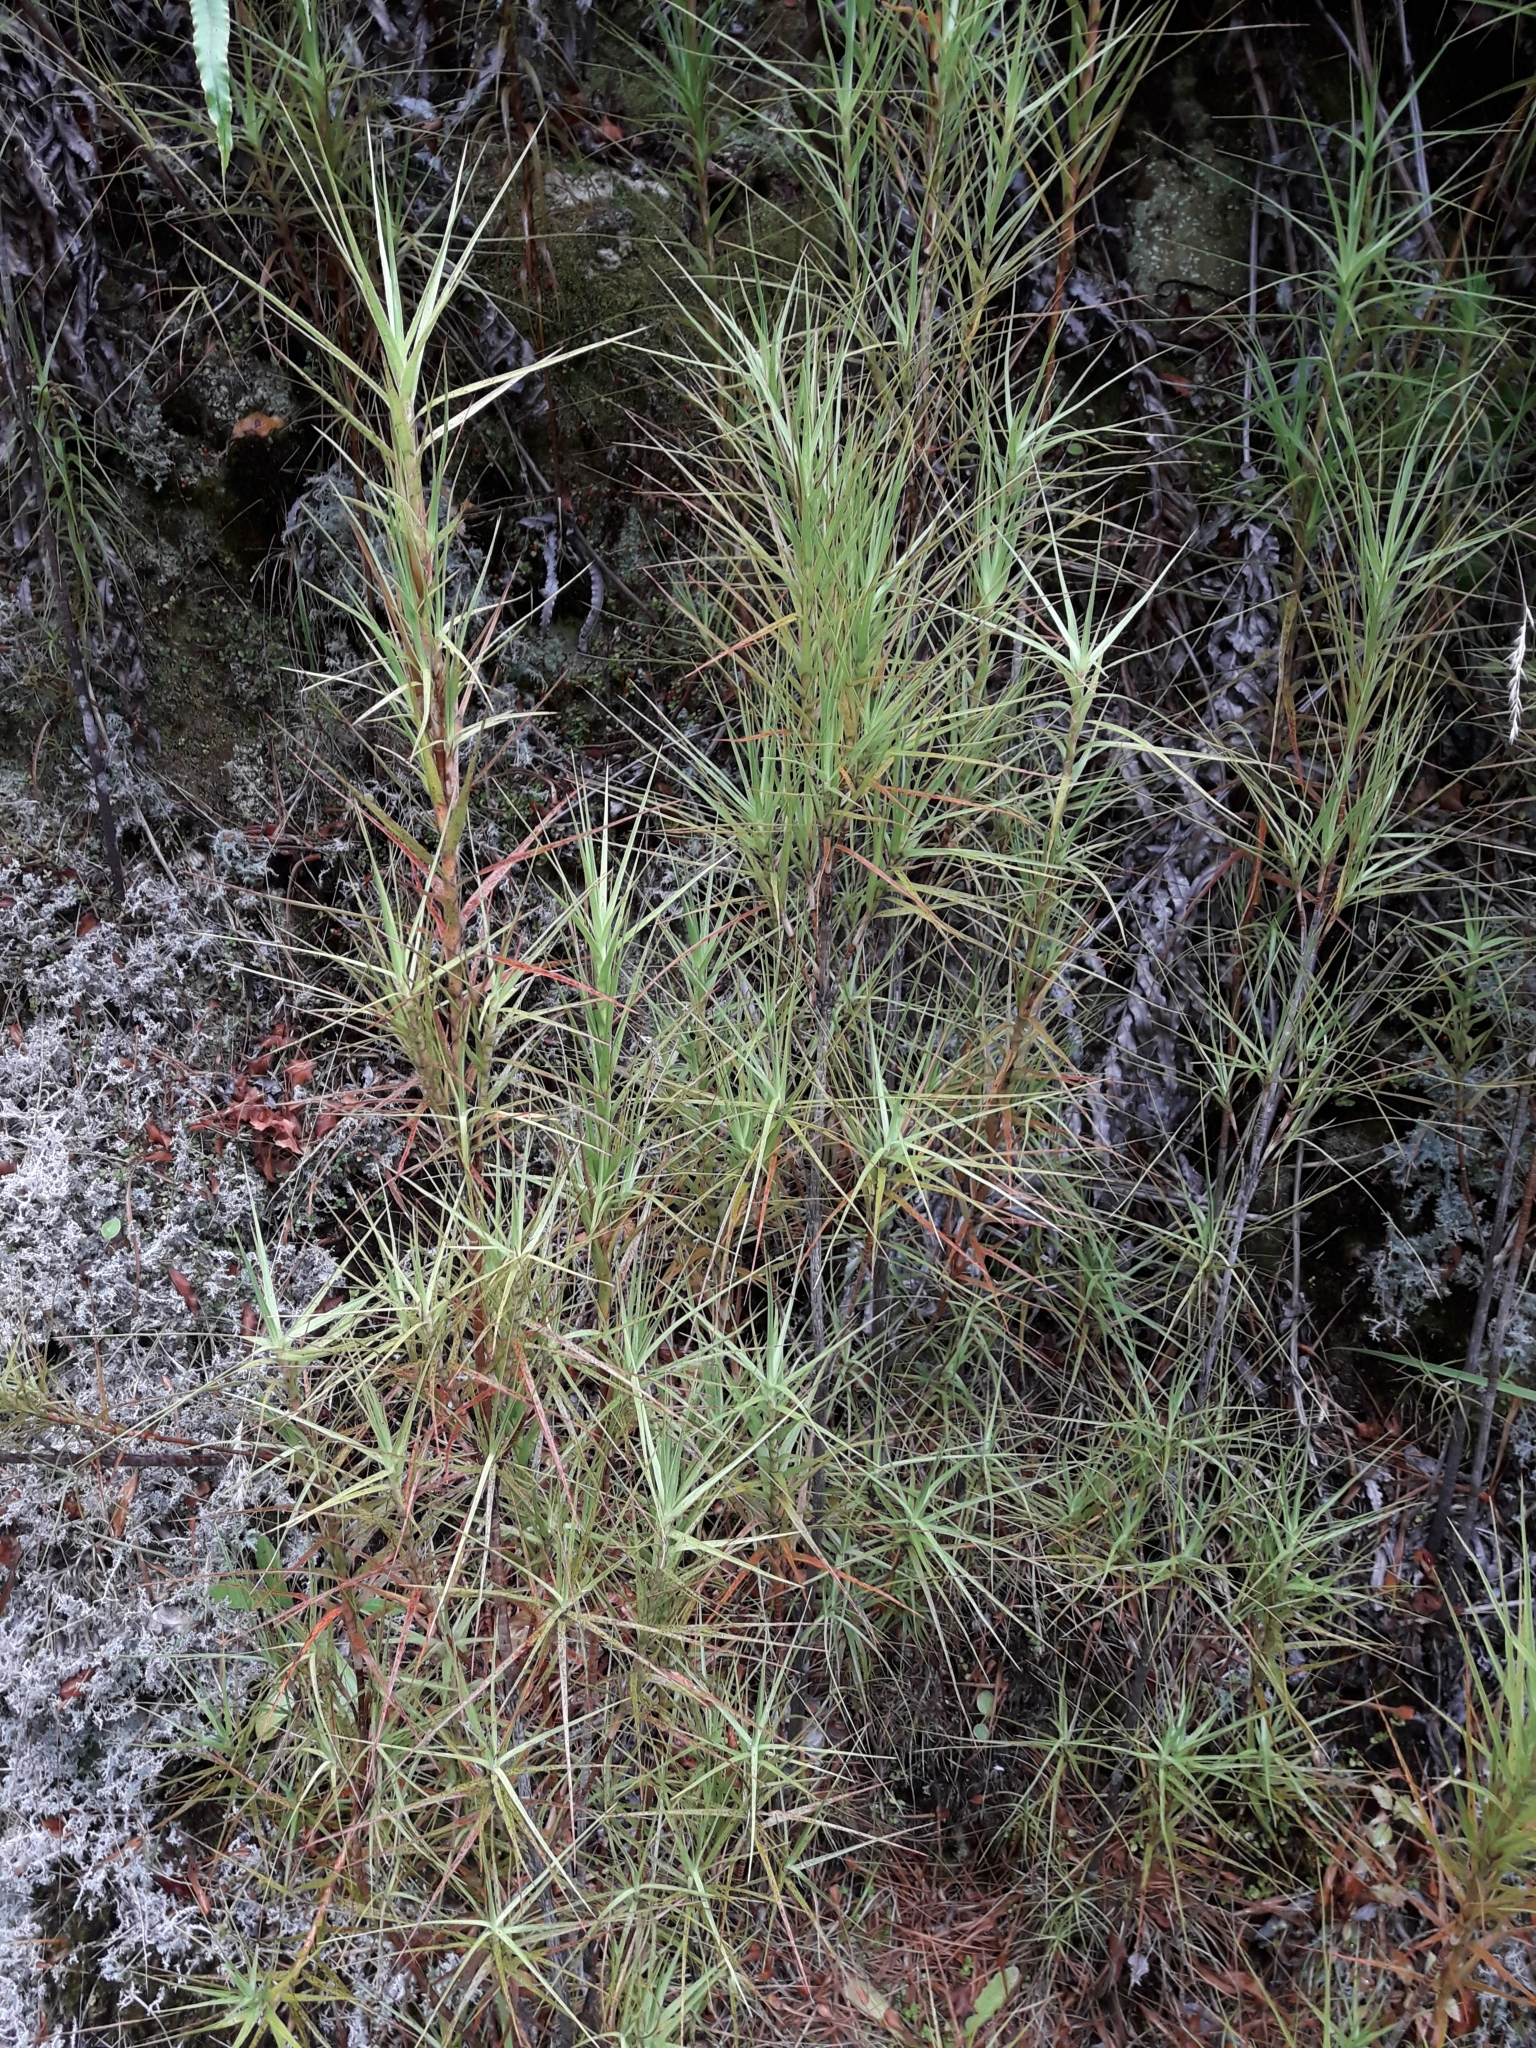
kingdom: Plantae
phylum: Tracheophyta
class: Magnoliopsida
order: Ericales
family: Ericaceae
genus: Dracophyllum
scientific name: Dracophyllum longifolium
